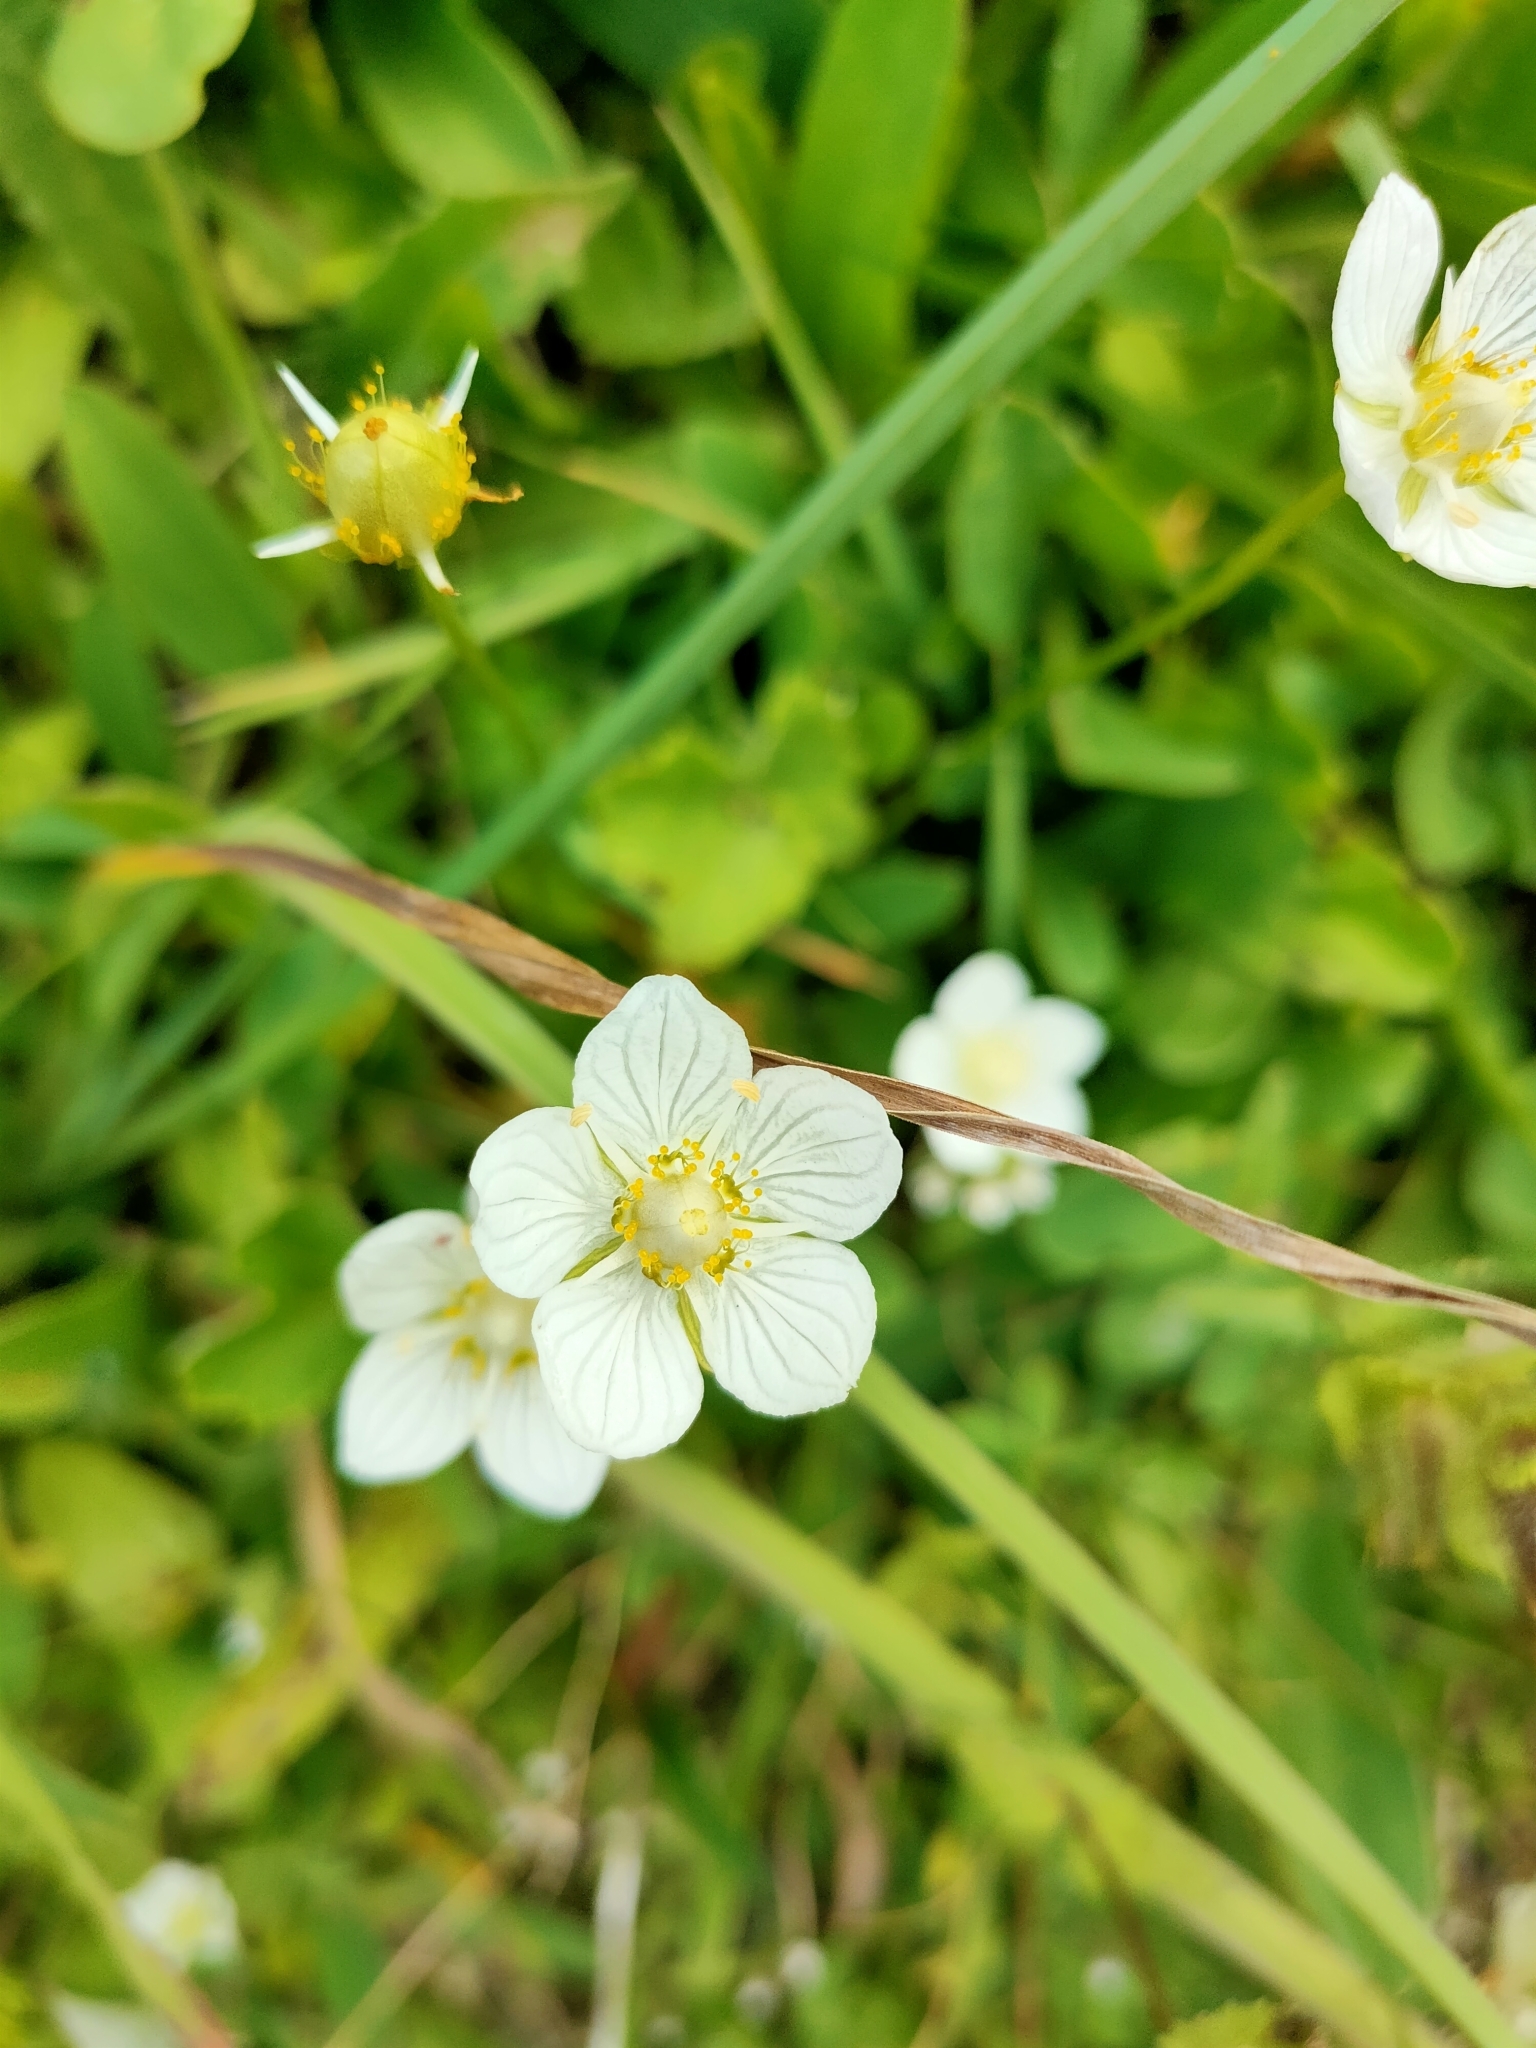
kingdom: Plantae
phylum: Tracheophyta
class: Magnoliopsida
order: Celastrales
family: Parnassiaceae
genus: Parnassia
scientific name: Parnassia palustris
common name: Grass-of-parnassus
